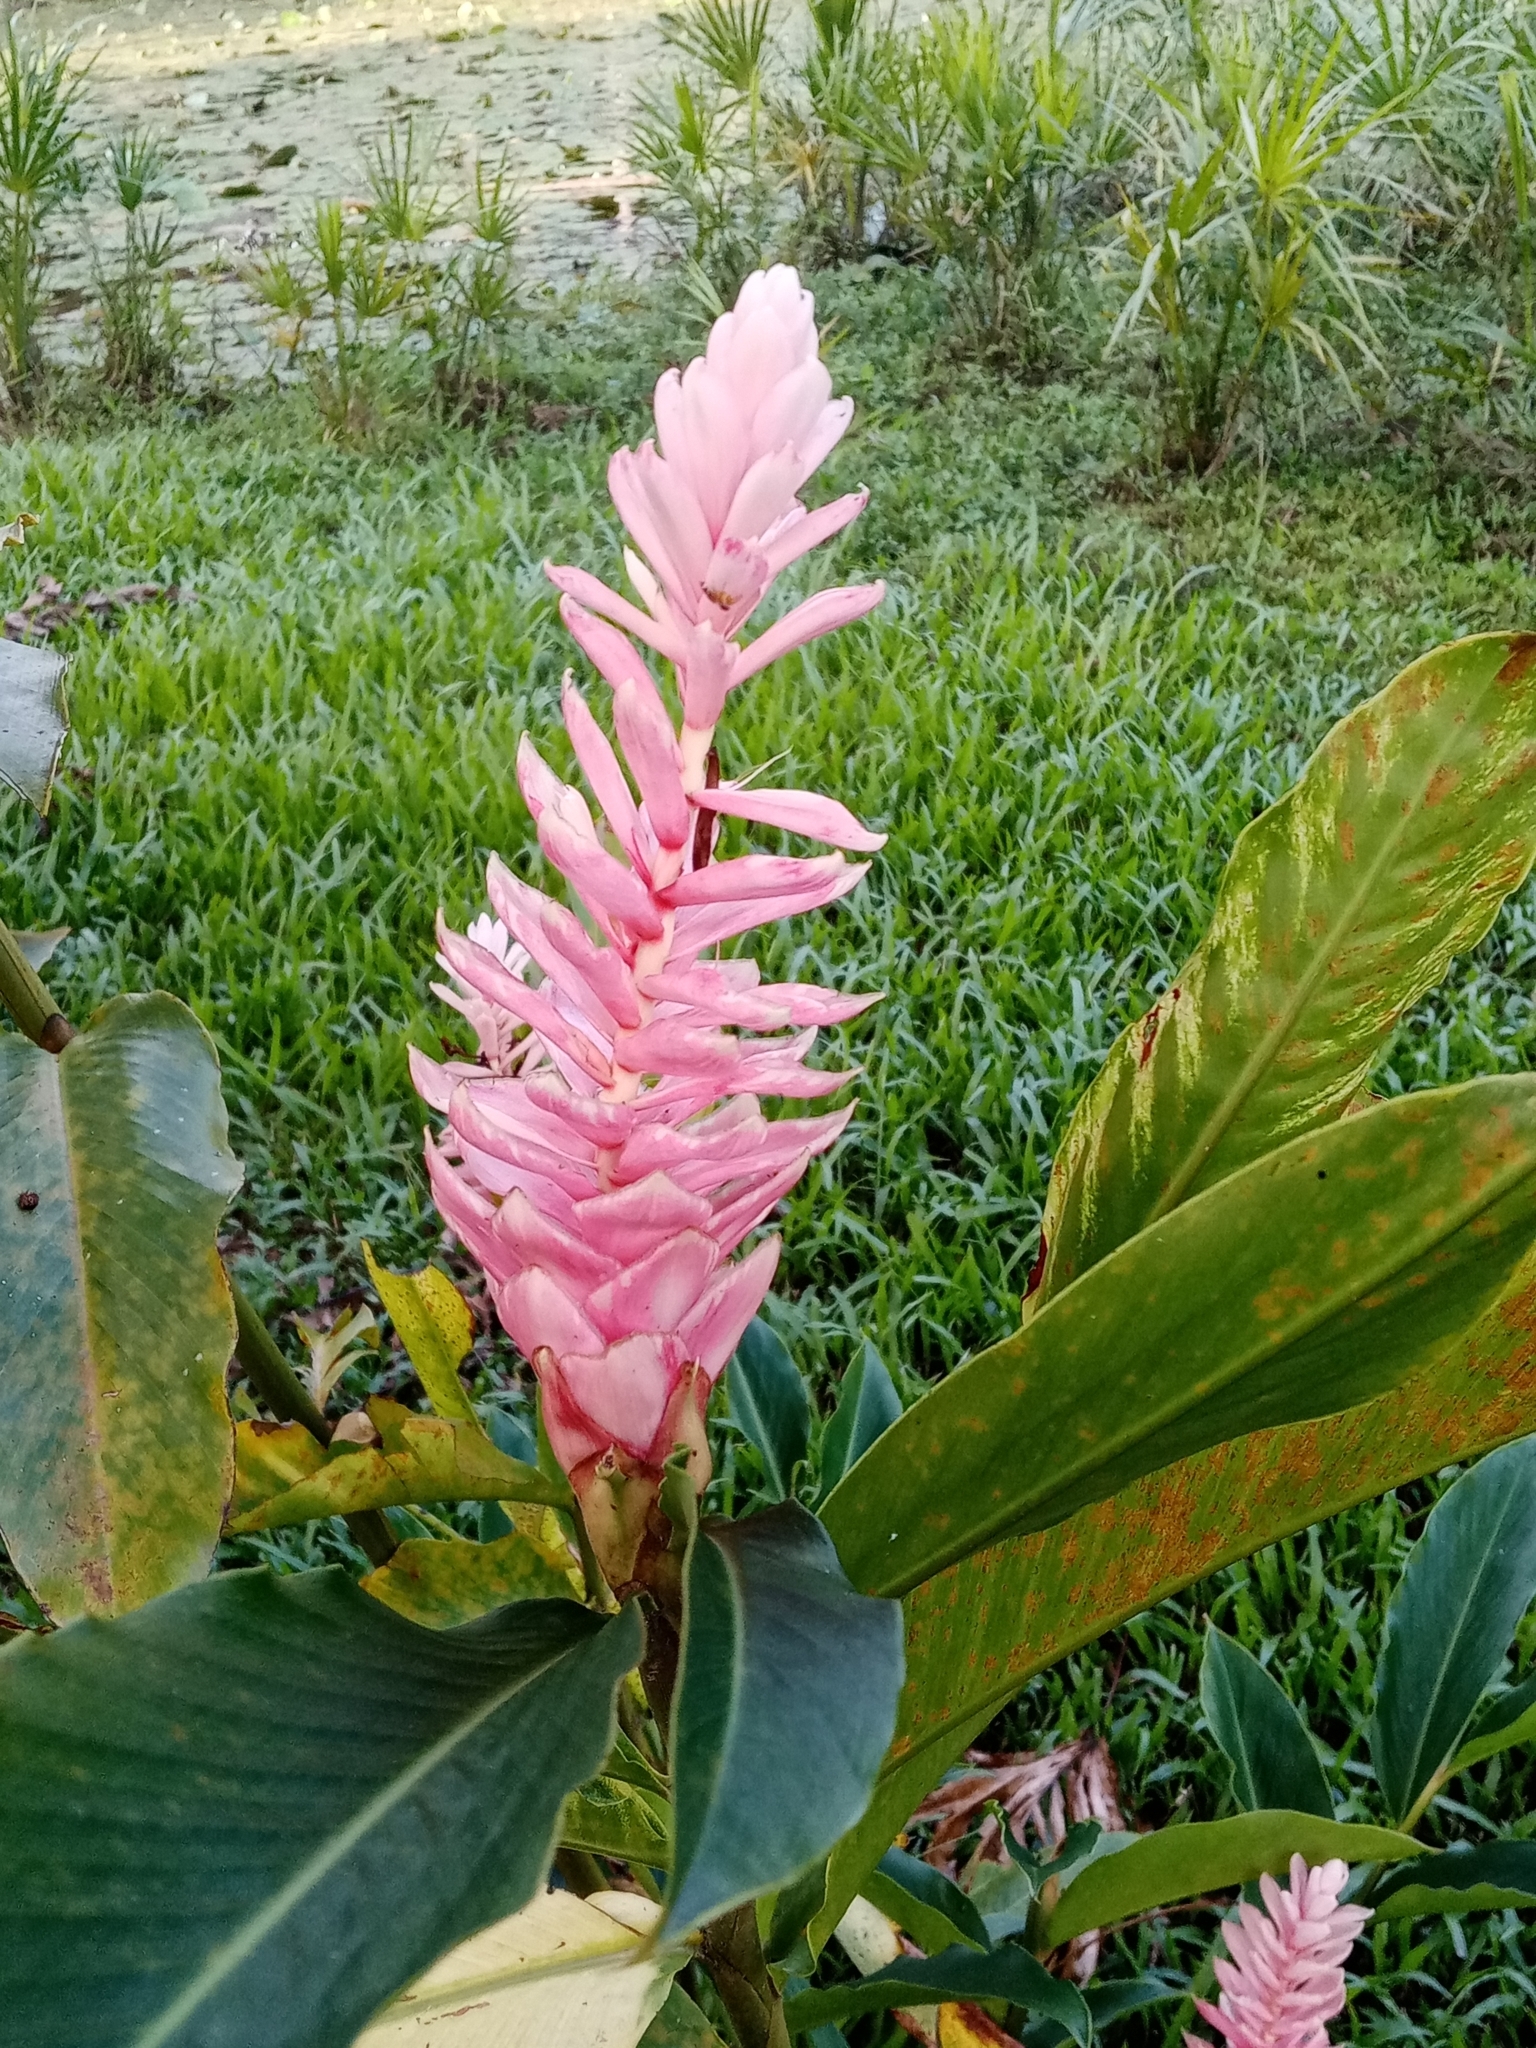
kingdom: Plantae
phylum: Tracheophyta
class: Liliopsida
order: Zingiberales
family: Zingiberaceae
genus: Alpinia
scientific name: Alpinia purpurata
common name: Red ginger
